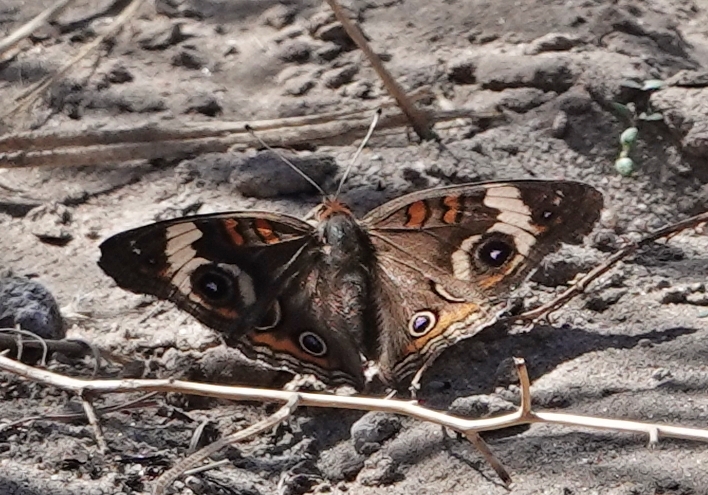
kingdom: Animalia
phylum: Arthropoda
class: Insecta
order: Lepidoptera
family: Nymphalidae
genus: Junonia
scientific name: Junonia coenia
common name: Common buckeye
